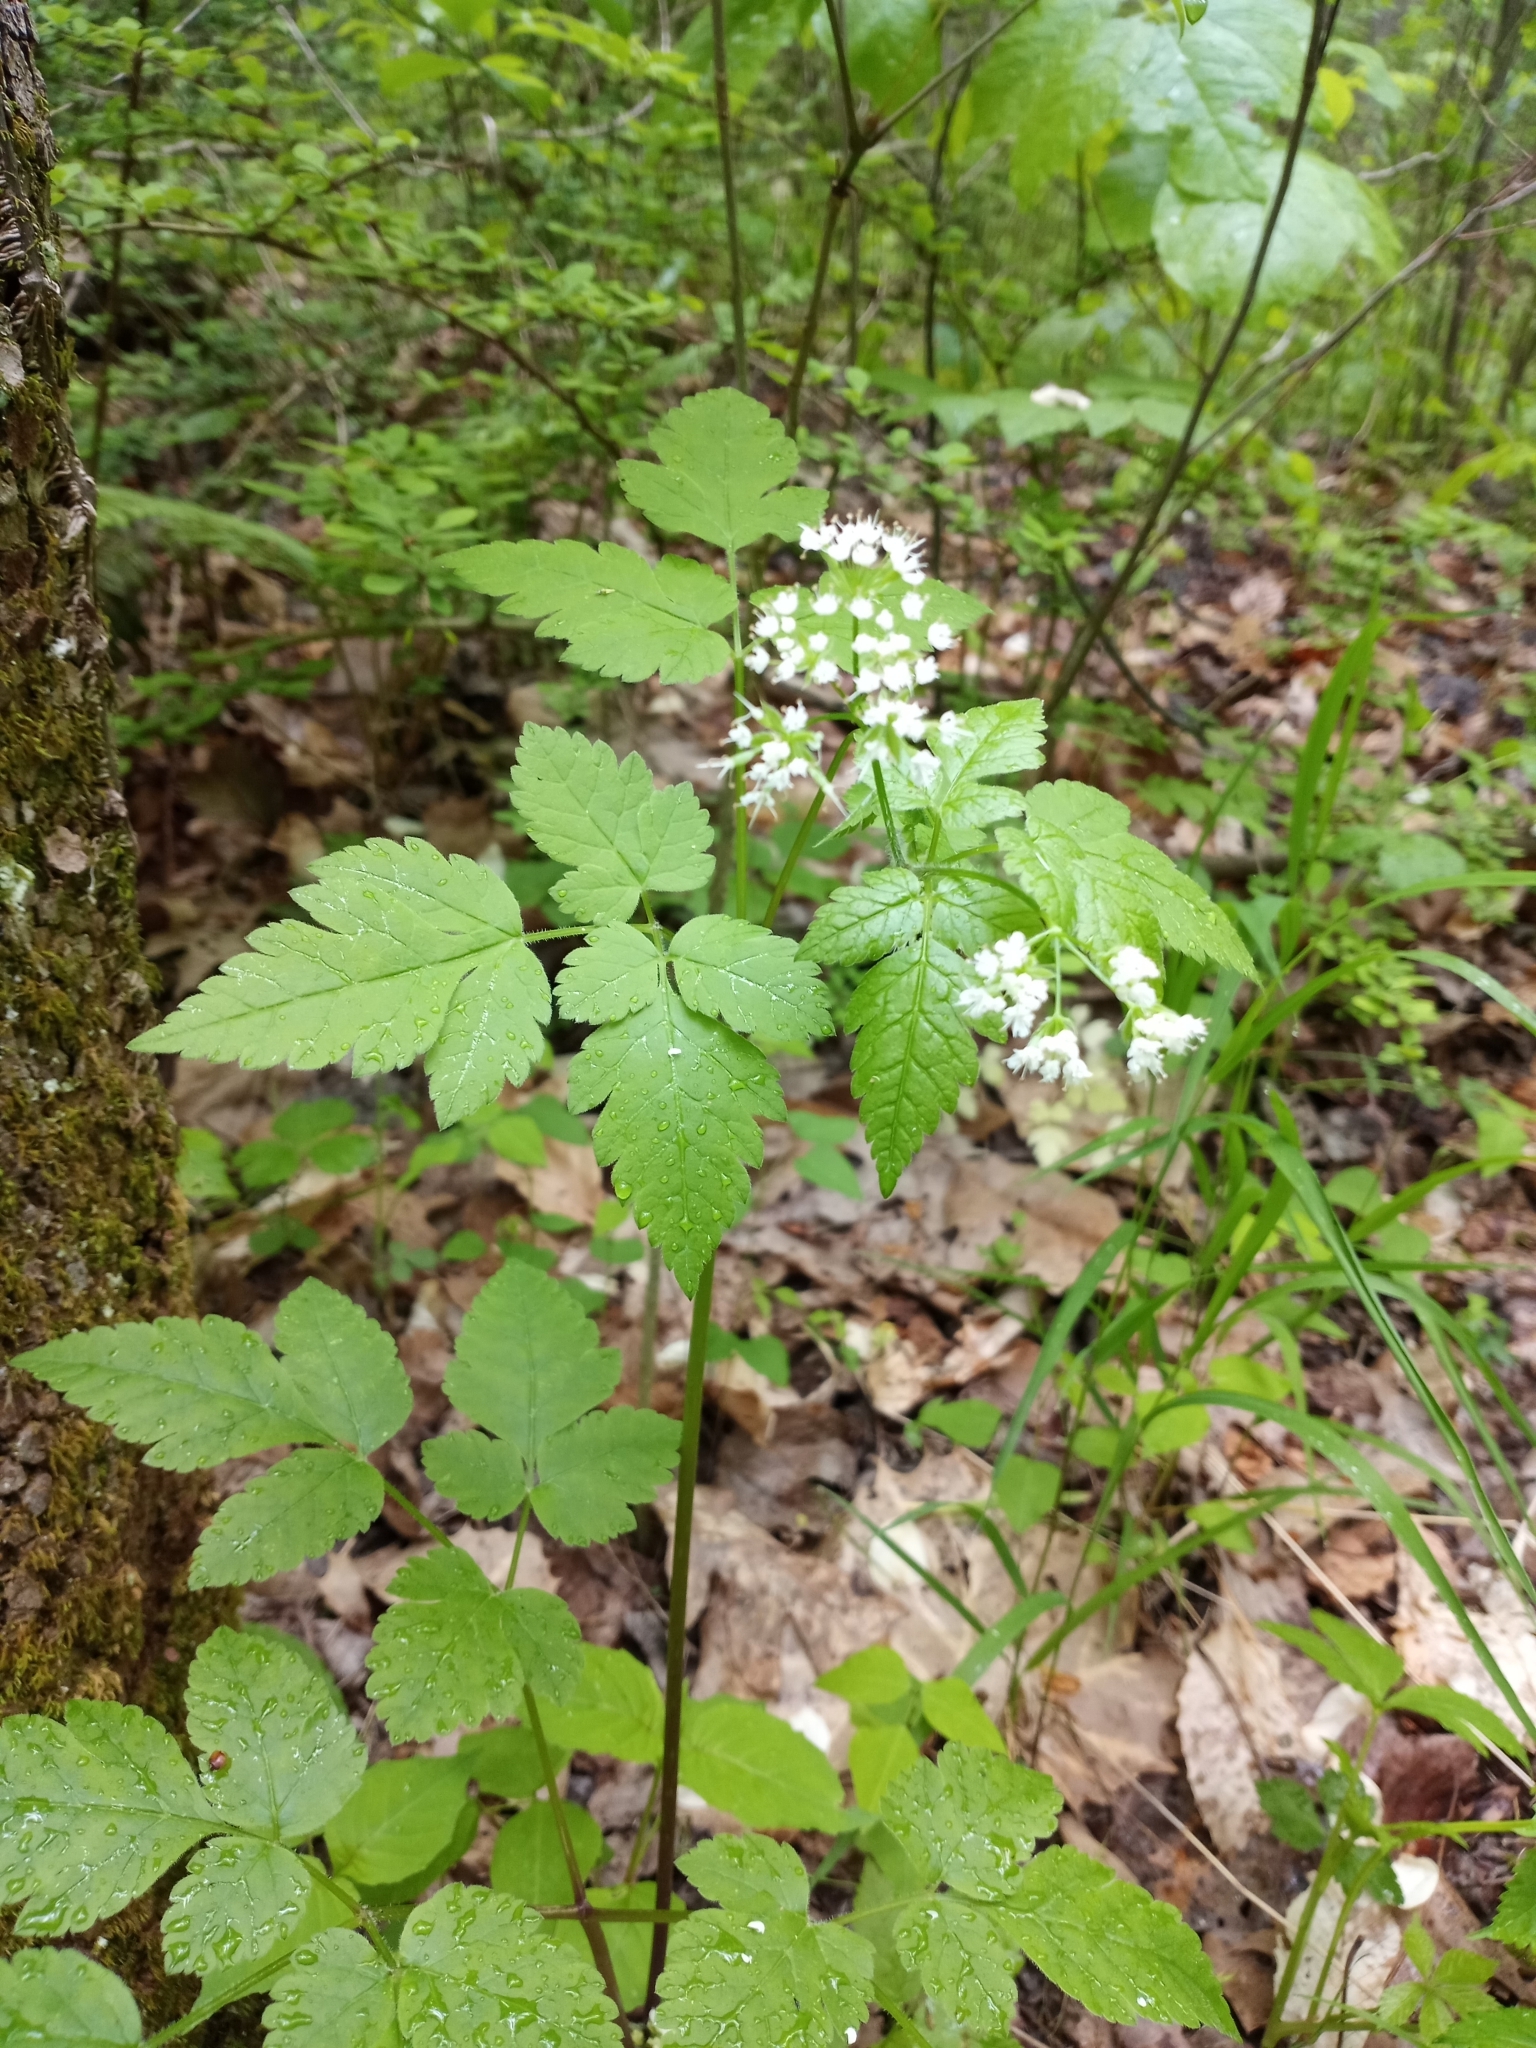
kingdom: Plantae
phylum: Tracheophyta
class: Magnoliopsida
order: Apiales
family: Apiaceae
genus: Osmorhiza
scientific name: Osmorhiza longistylis
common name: Smooth sweet cicely
